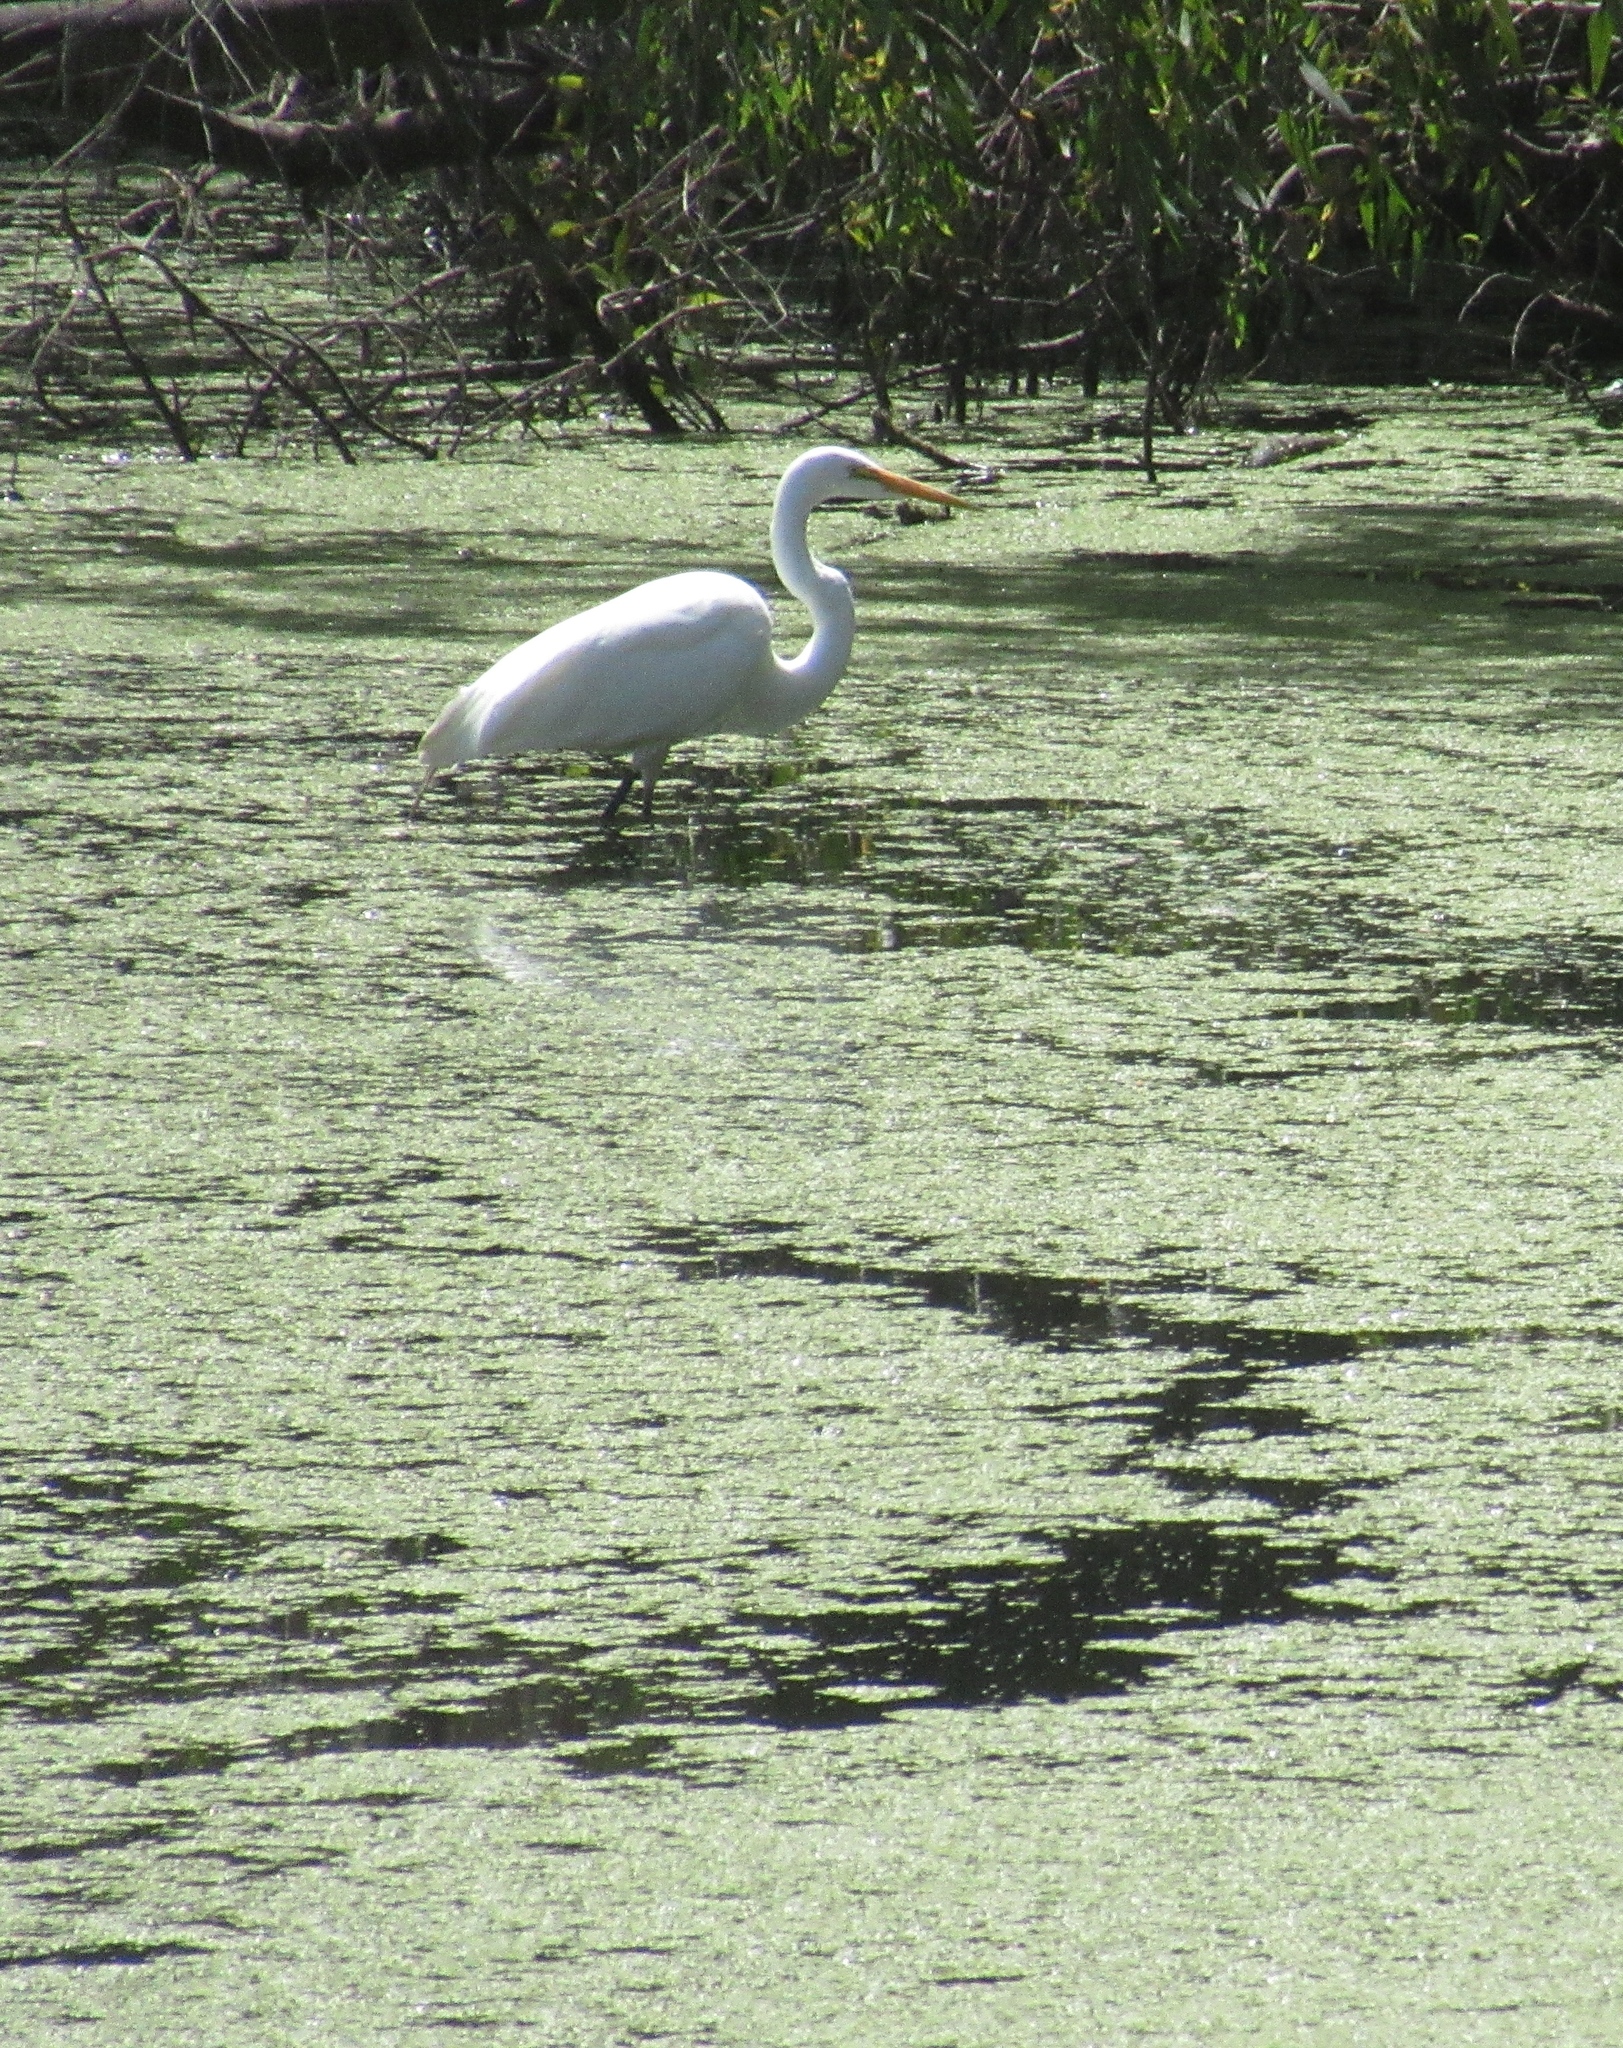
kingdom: Animalia
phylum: Chordata
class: Aves
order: Pelecaniformes
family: Ardeidae
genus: Ardea
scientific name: Ardea alba
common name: Great egret
